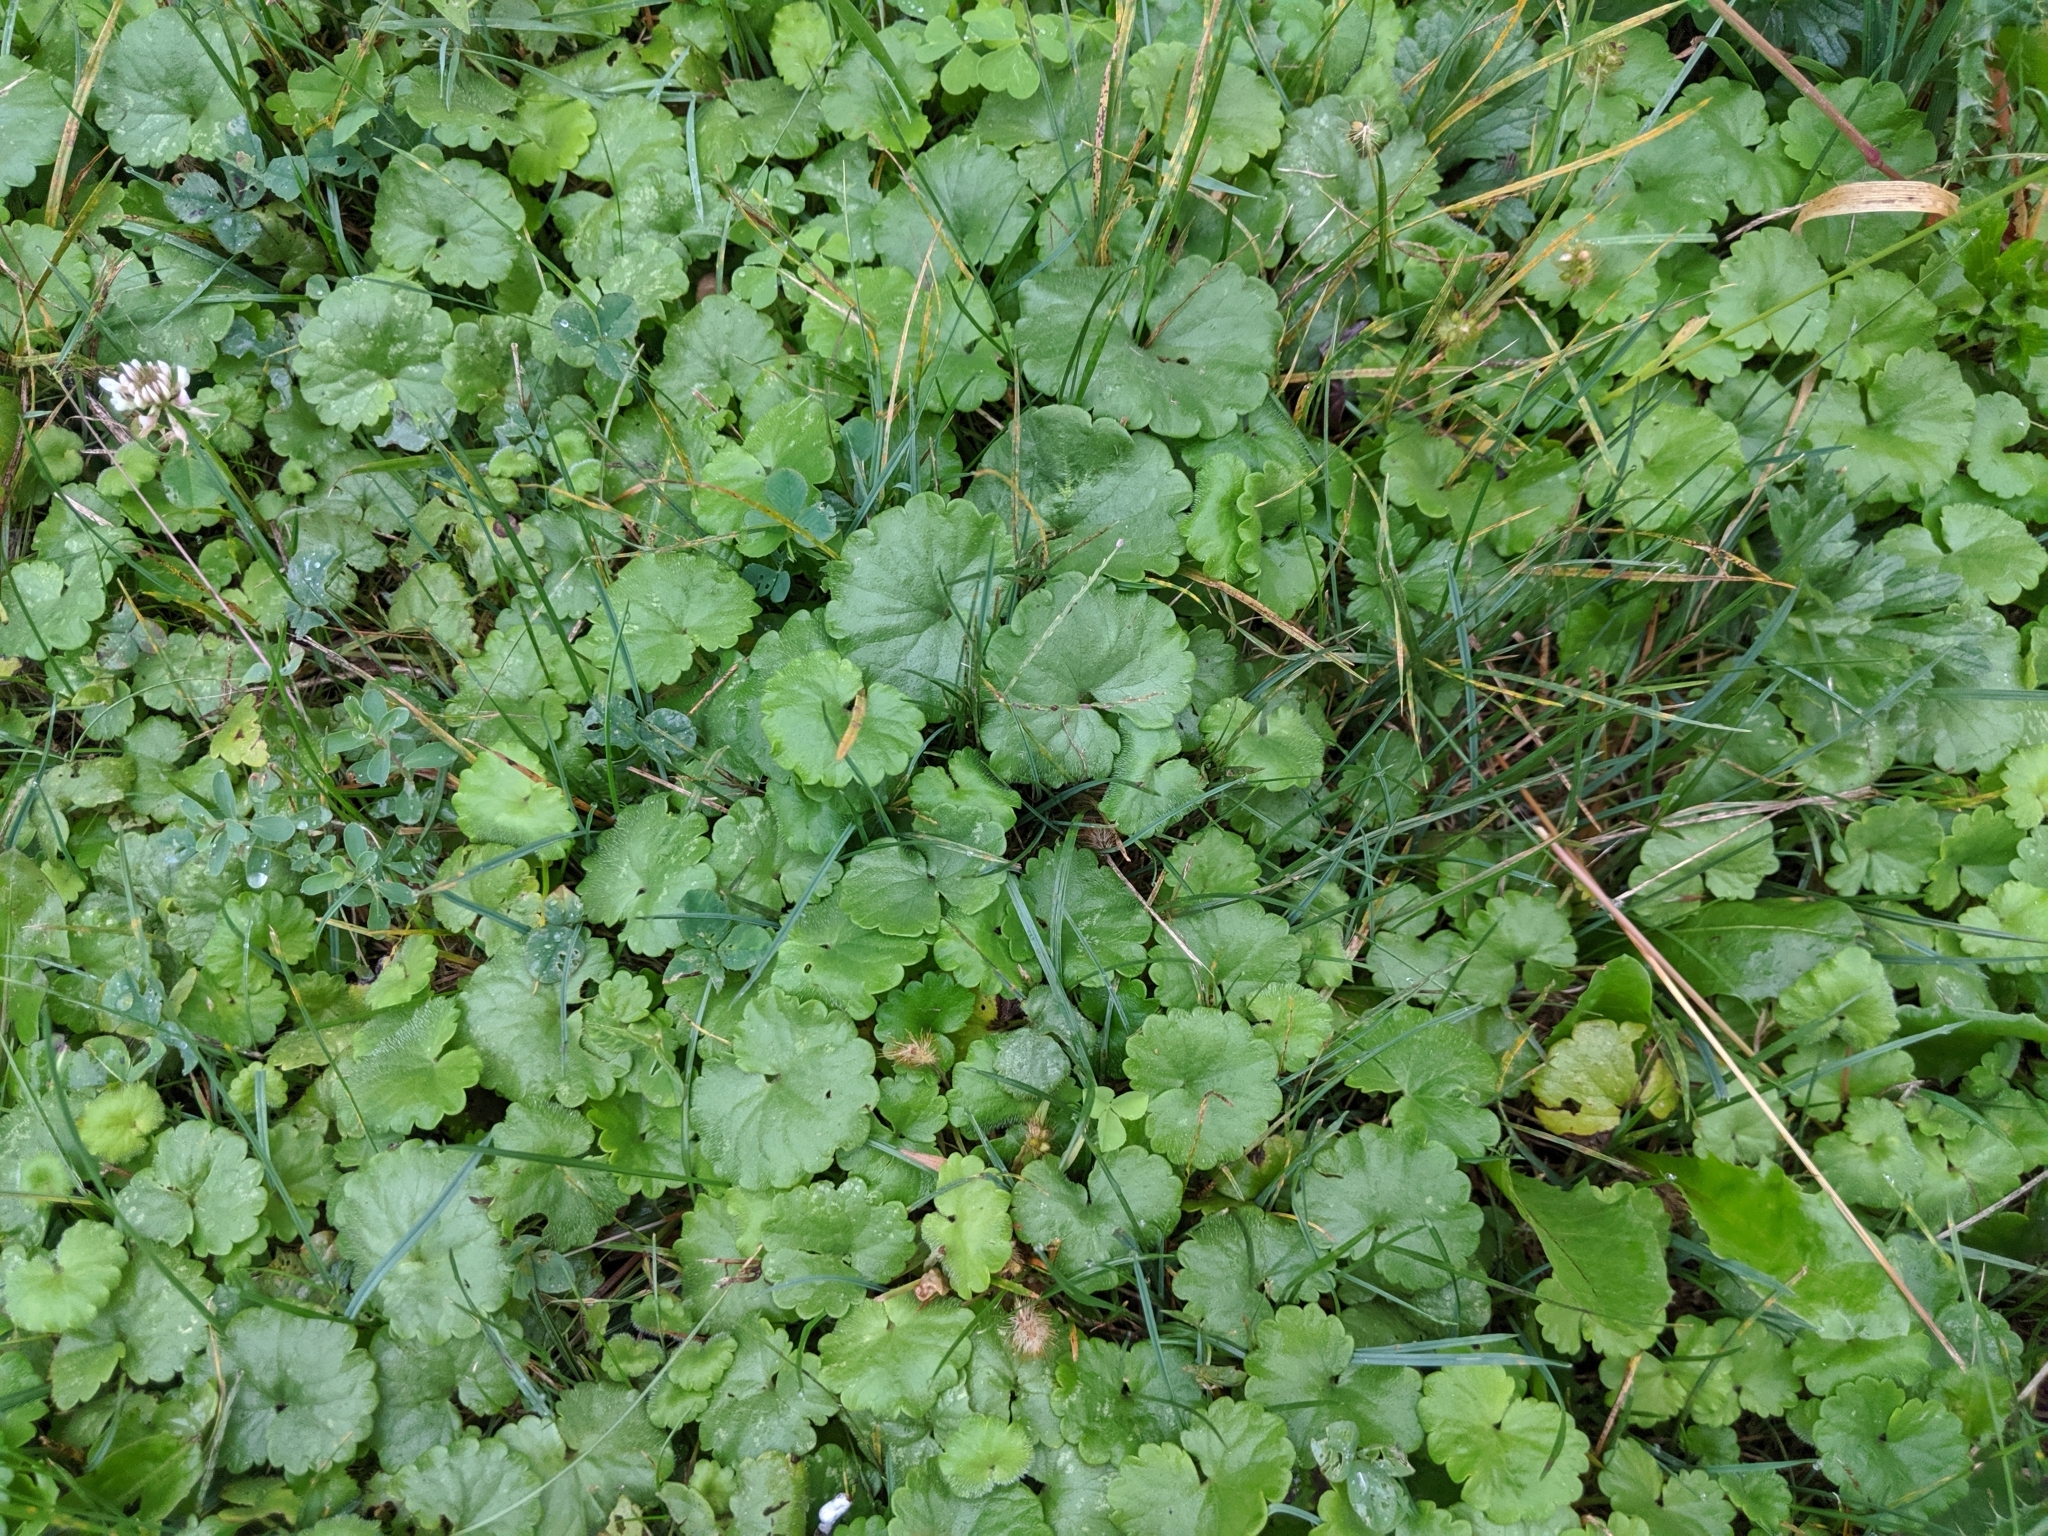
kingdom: Plantae
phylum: Tracheophyta
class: Magnoliopsida
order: Lamiales
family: Lamiaceae
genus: Glechoma
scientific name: Glechoma hederacea
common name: Ground ivy
